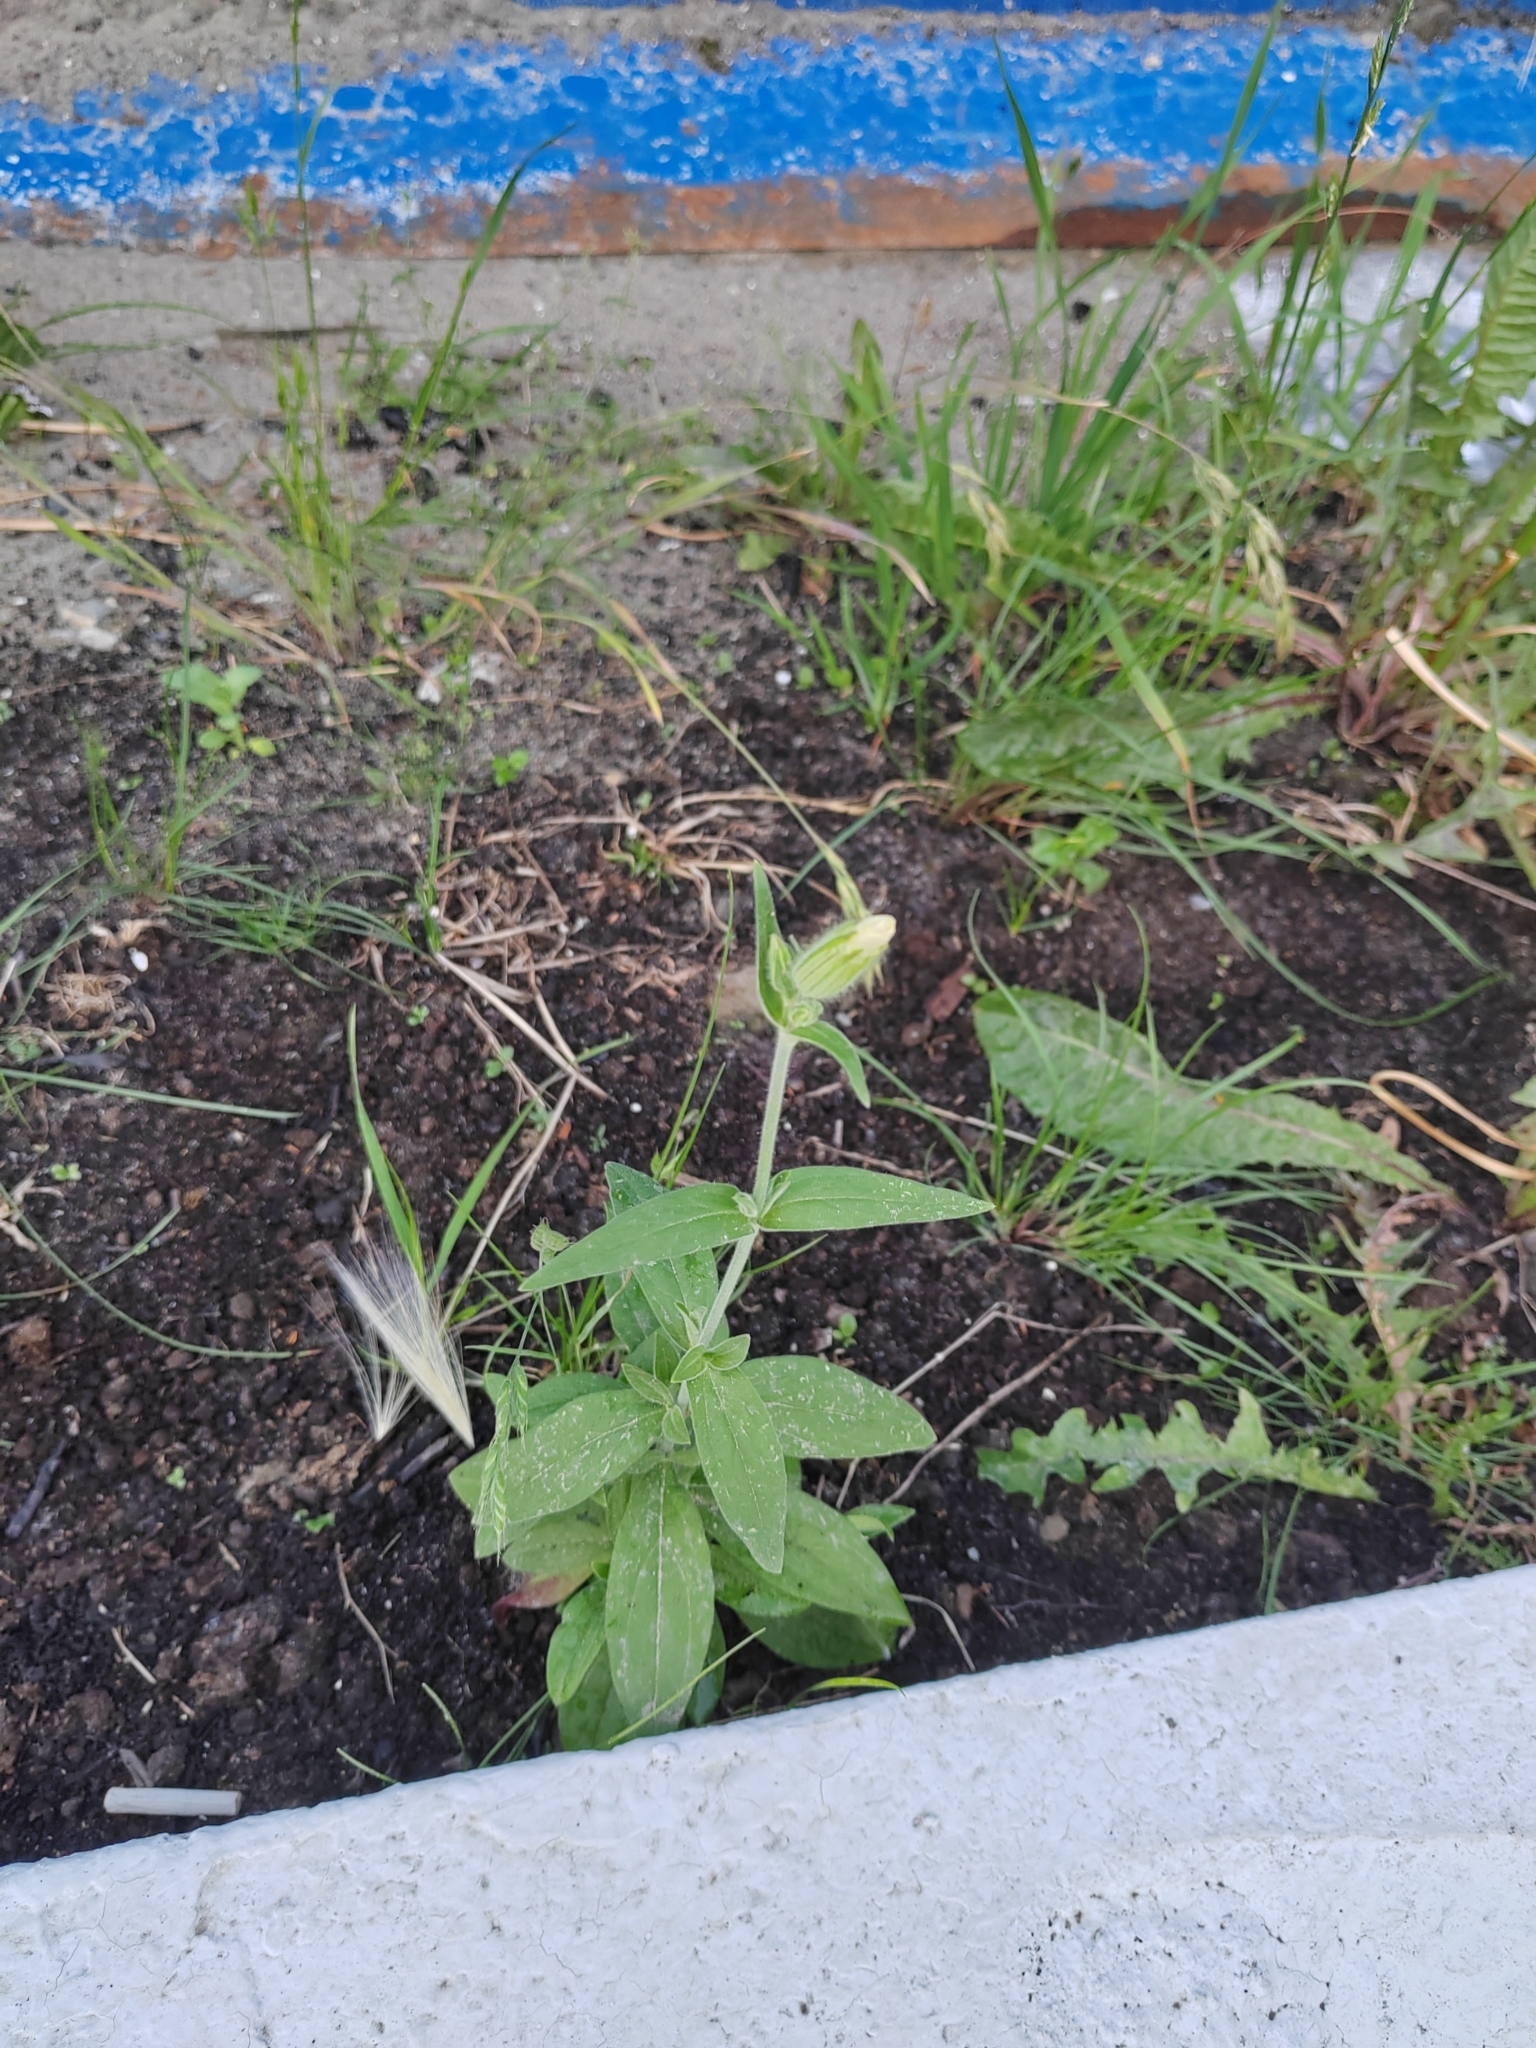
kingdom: Plantae
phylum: Tracheophyta
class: Magnoliopsida
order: Caryophyllales
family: Caryophyllaceae
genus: Silene
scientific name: Silene latifolia
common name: White campion
